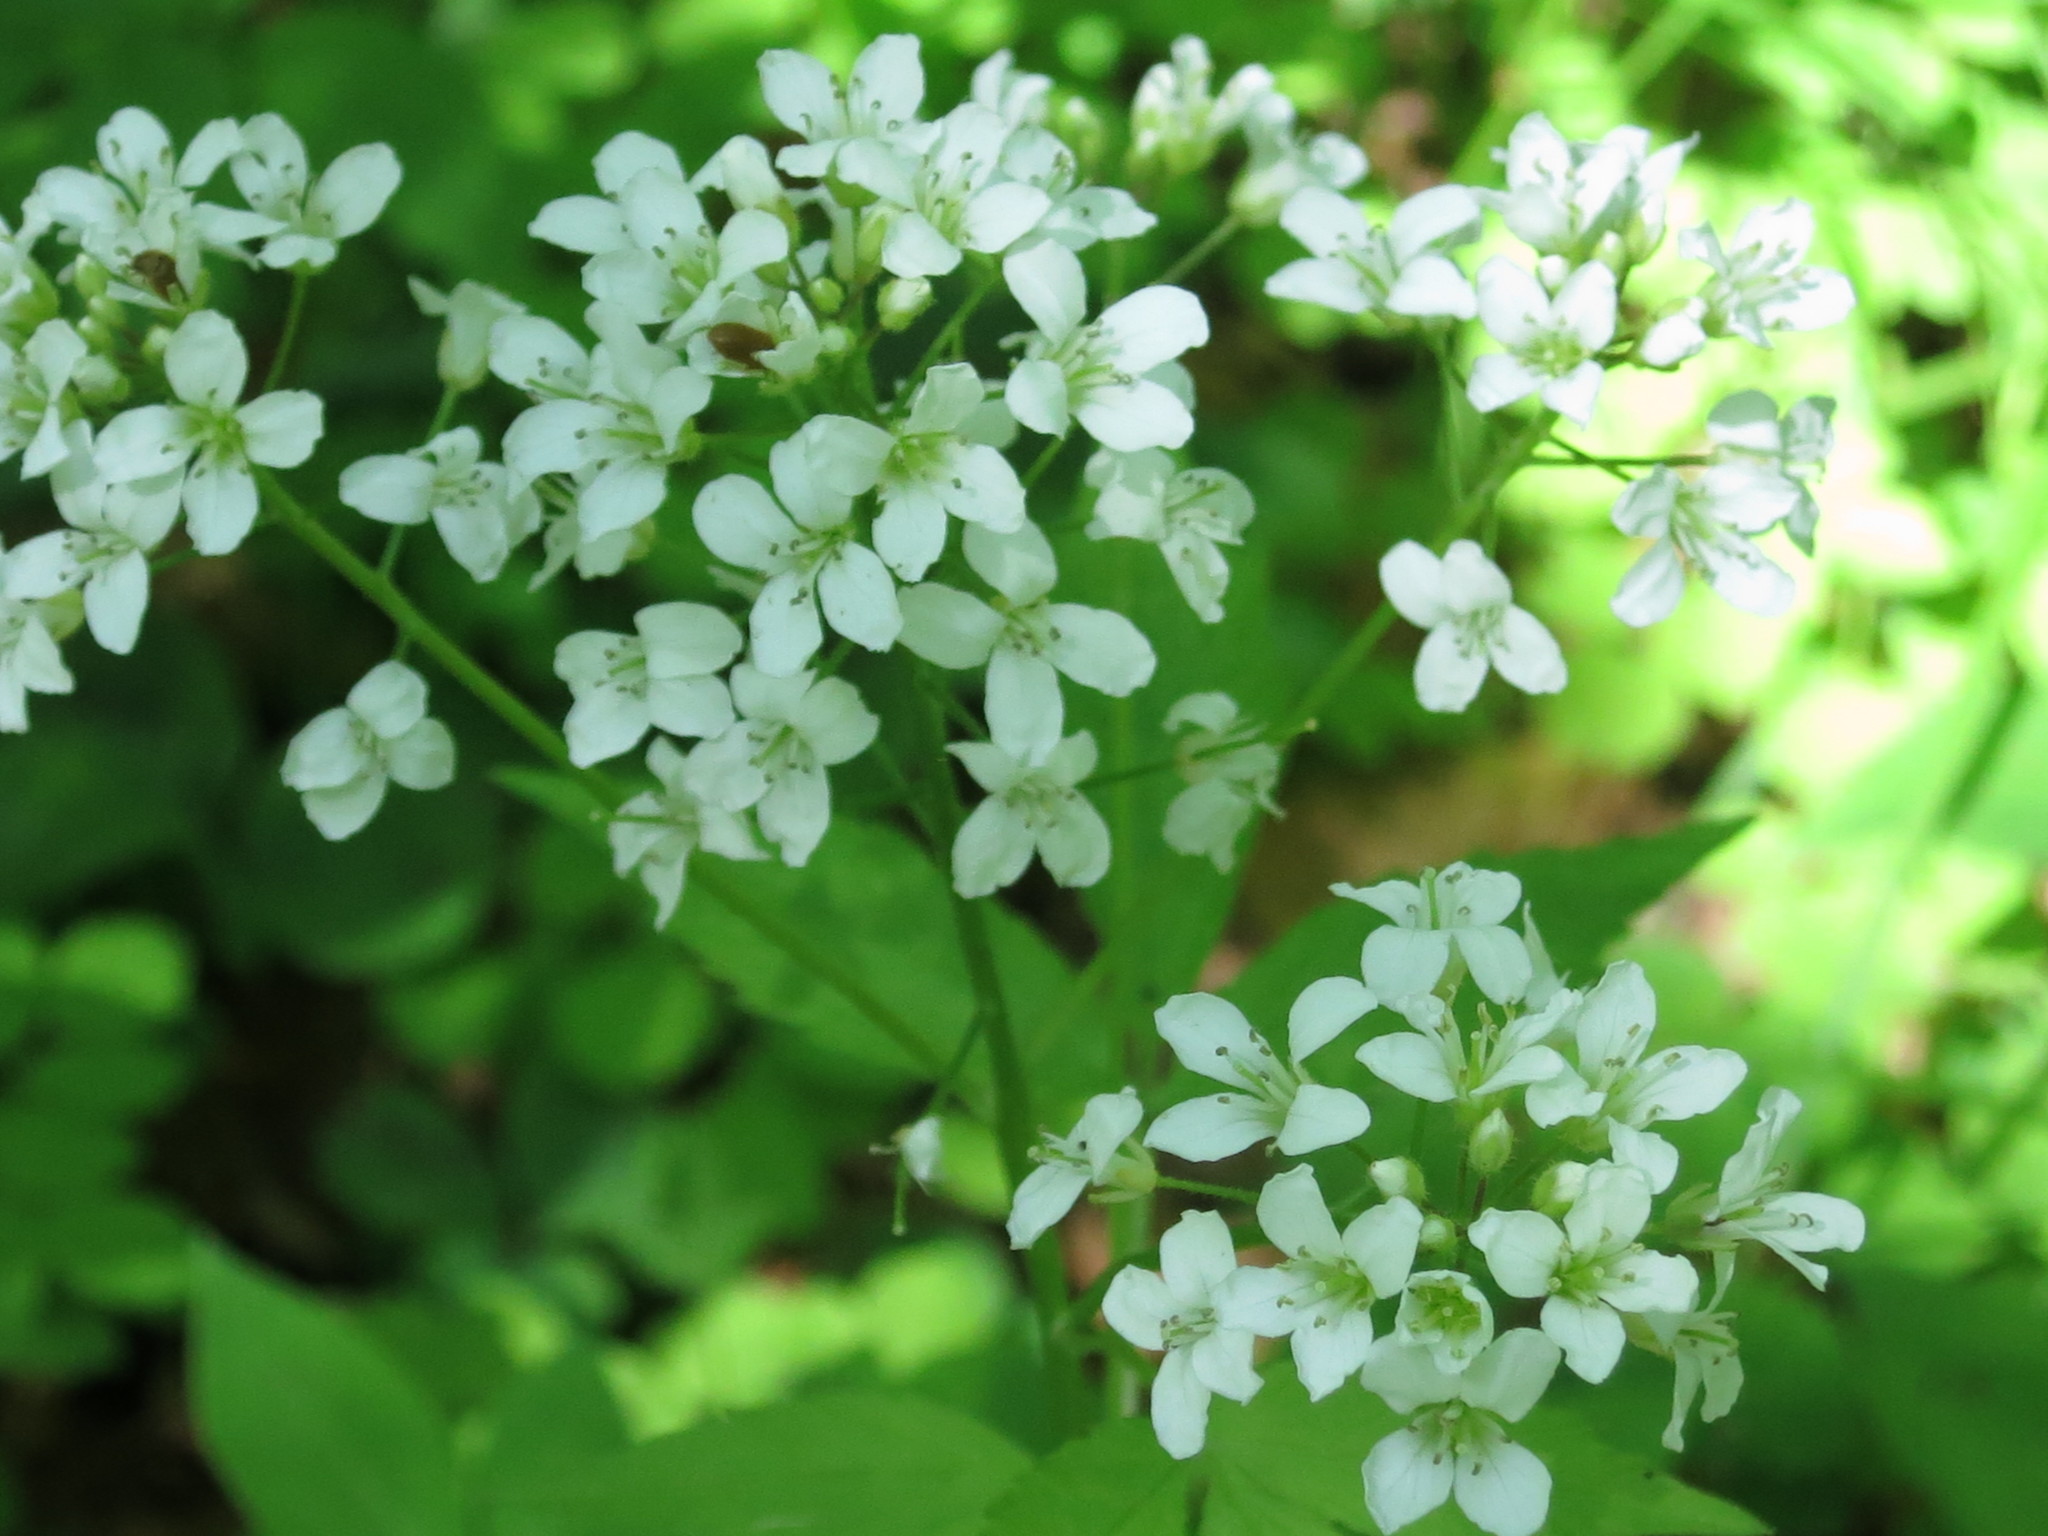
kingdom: Plantae
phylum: Tracheophyta
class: Magnoliopsida
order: Brassicales
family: Brassicaceae
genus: Cardamine
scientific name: Cardamine leucantha
